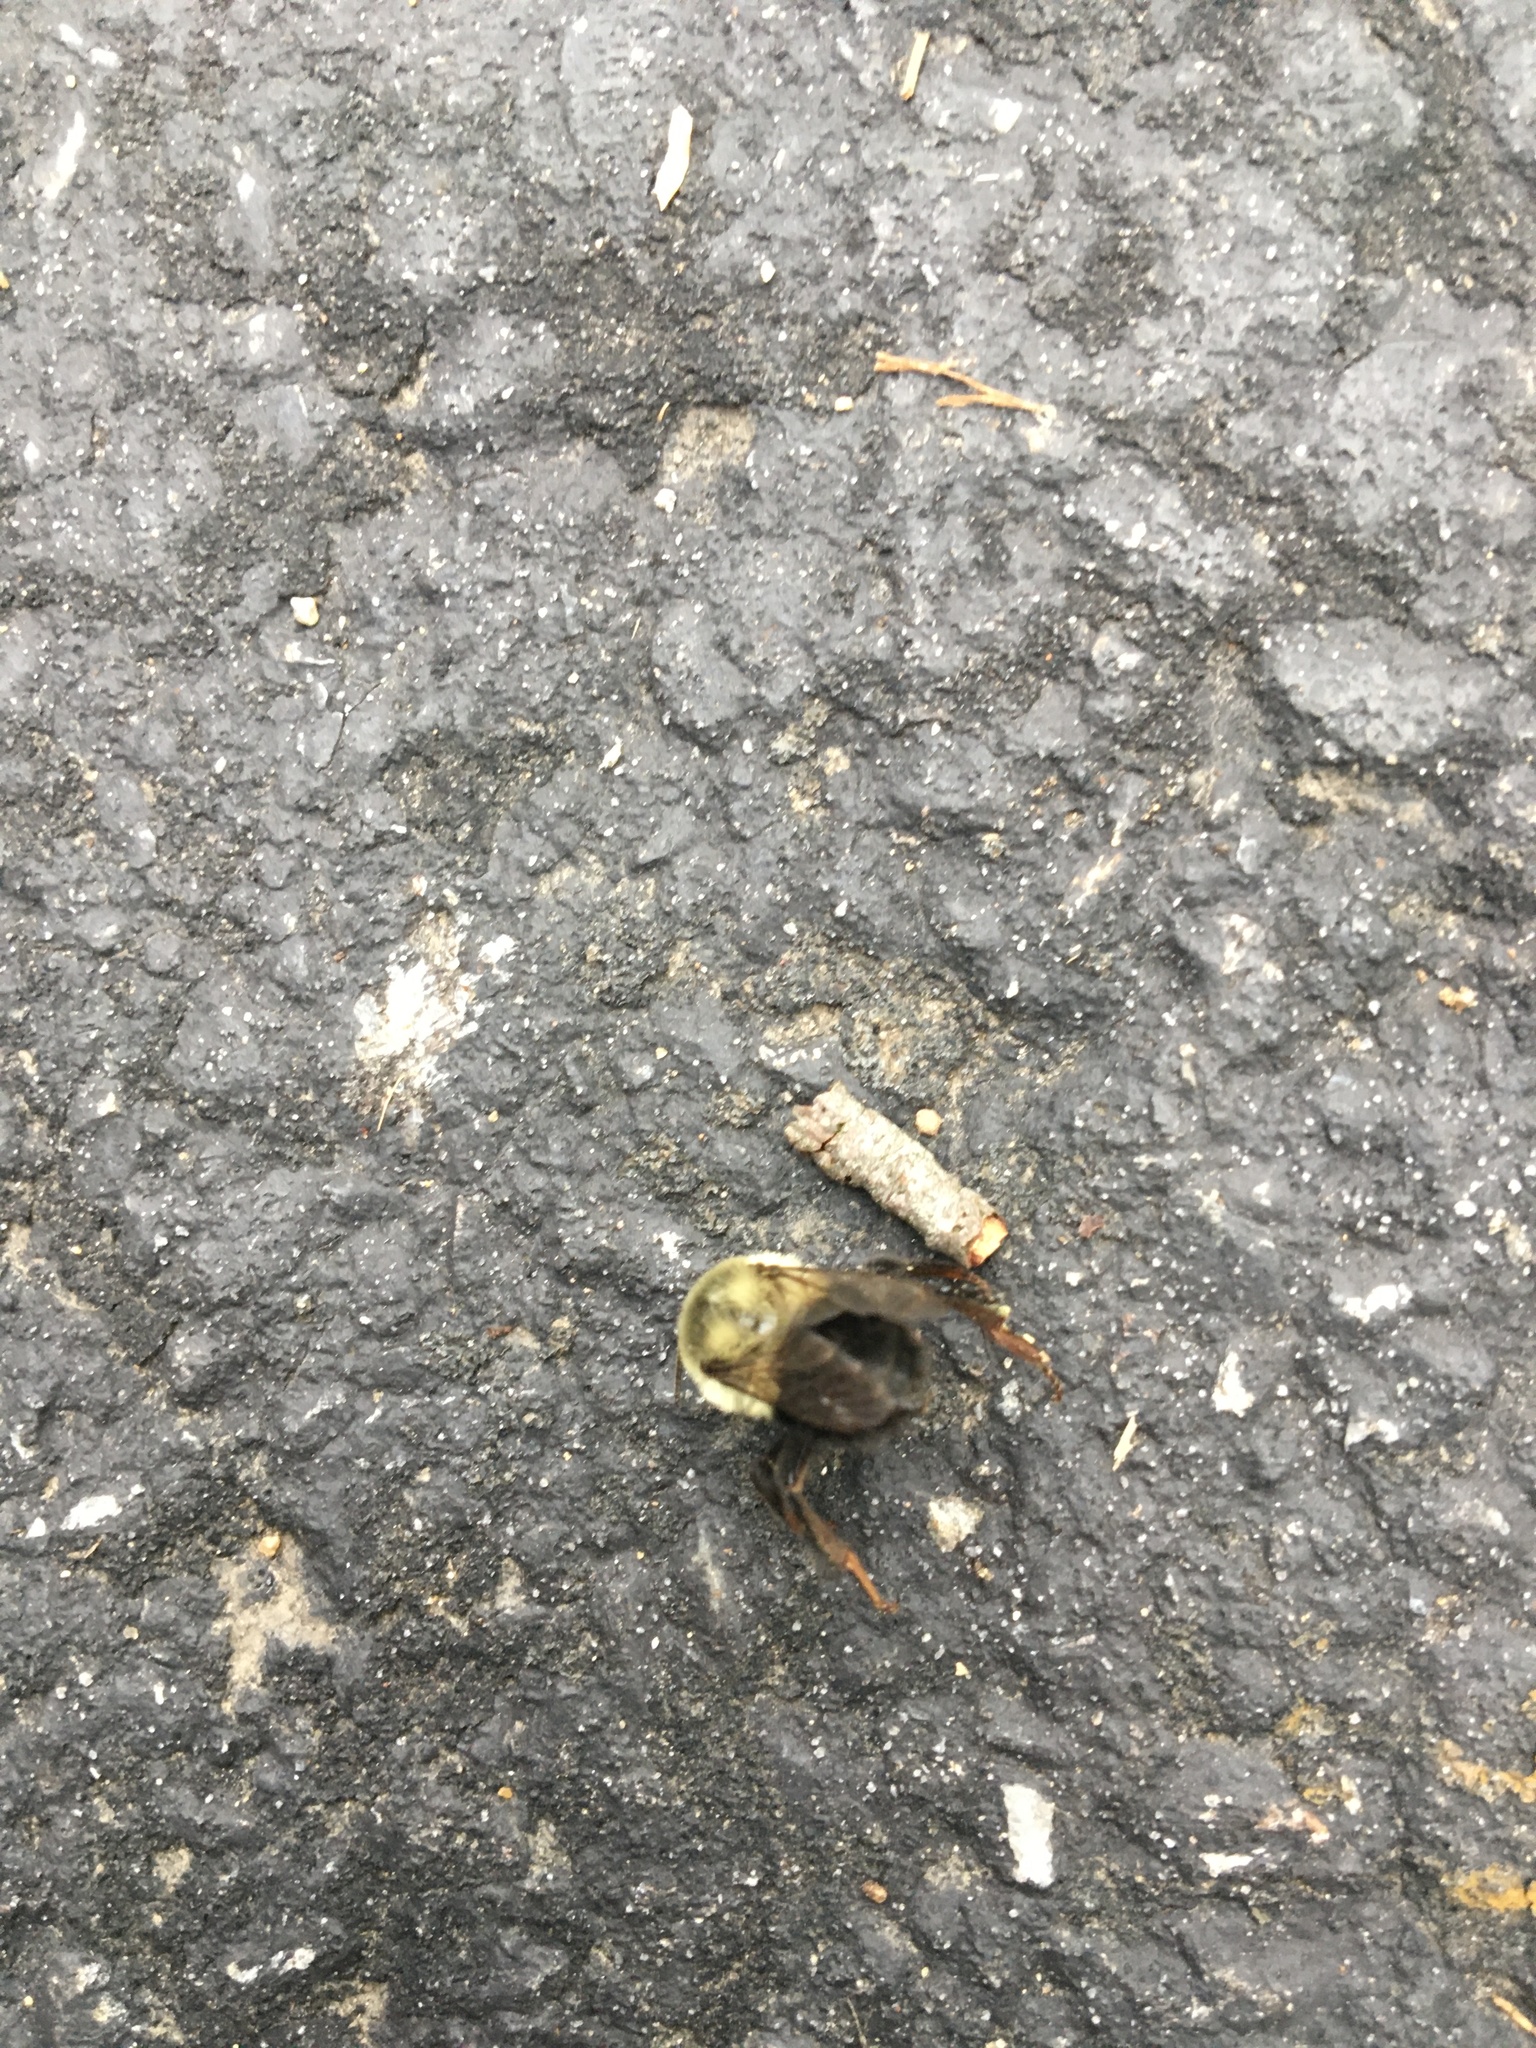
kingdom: Animalia
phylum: Arthropoda
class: Insecta
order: Hymenoptera
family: Apidae
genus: Bombus
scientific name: Bombus impatiens
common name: Common eastern bumble bee
